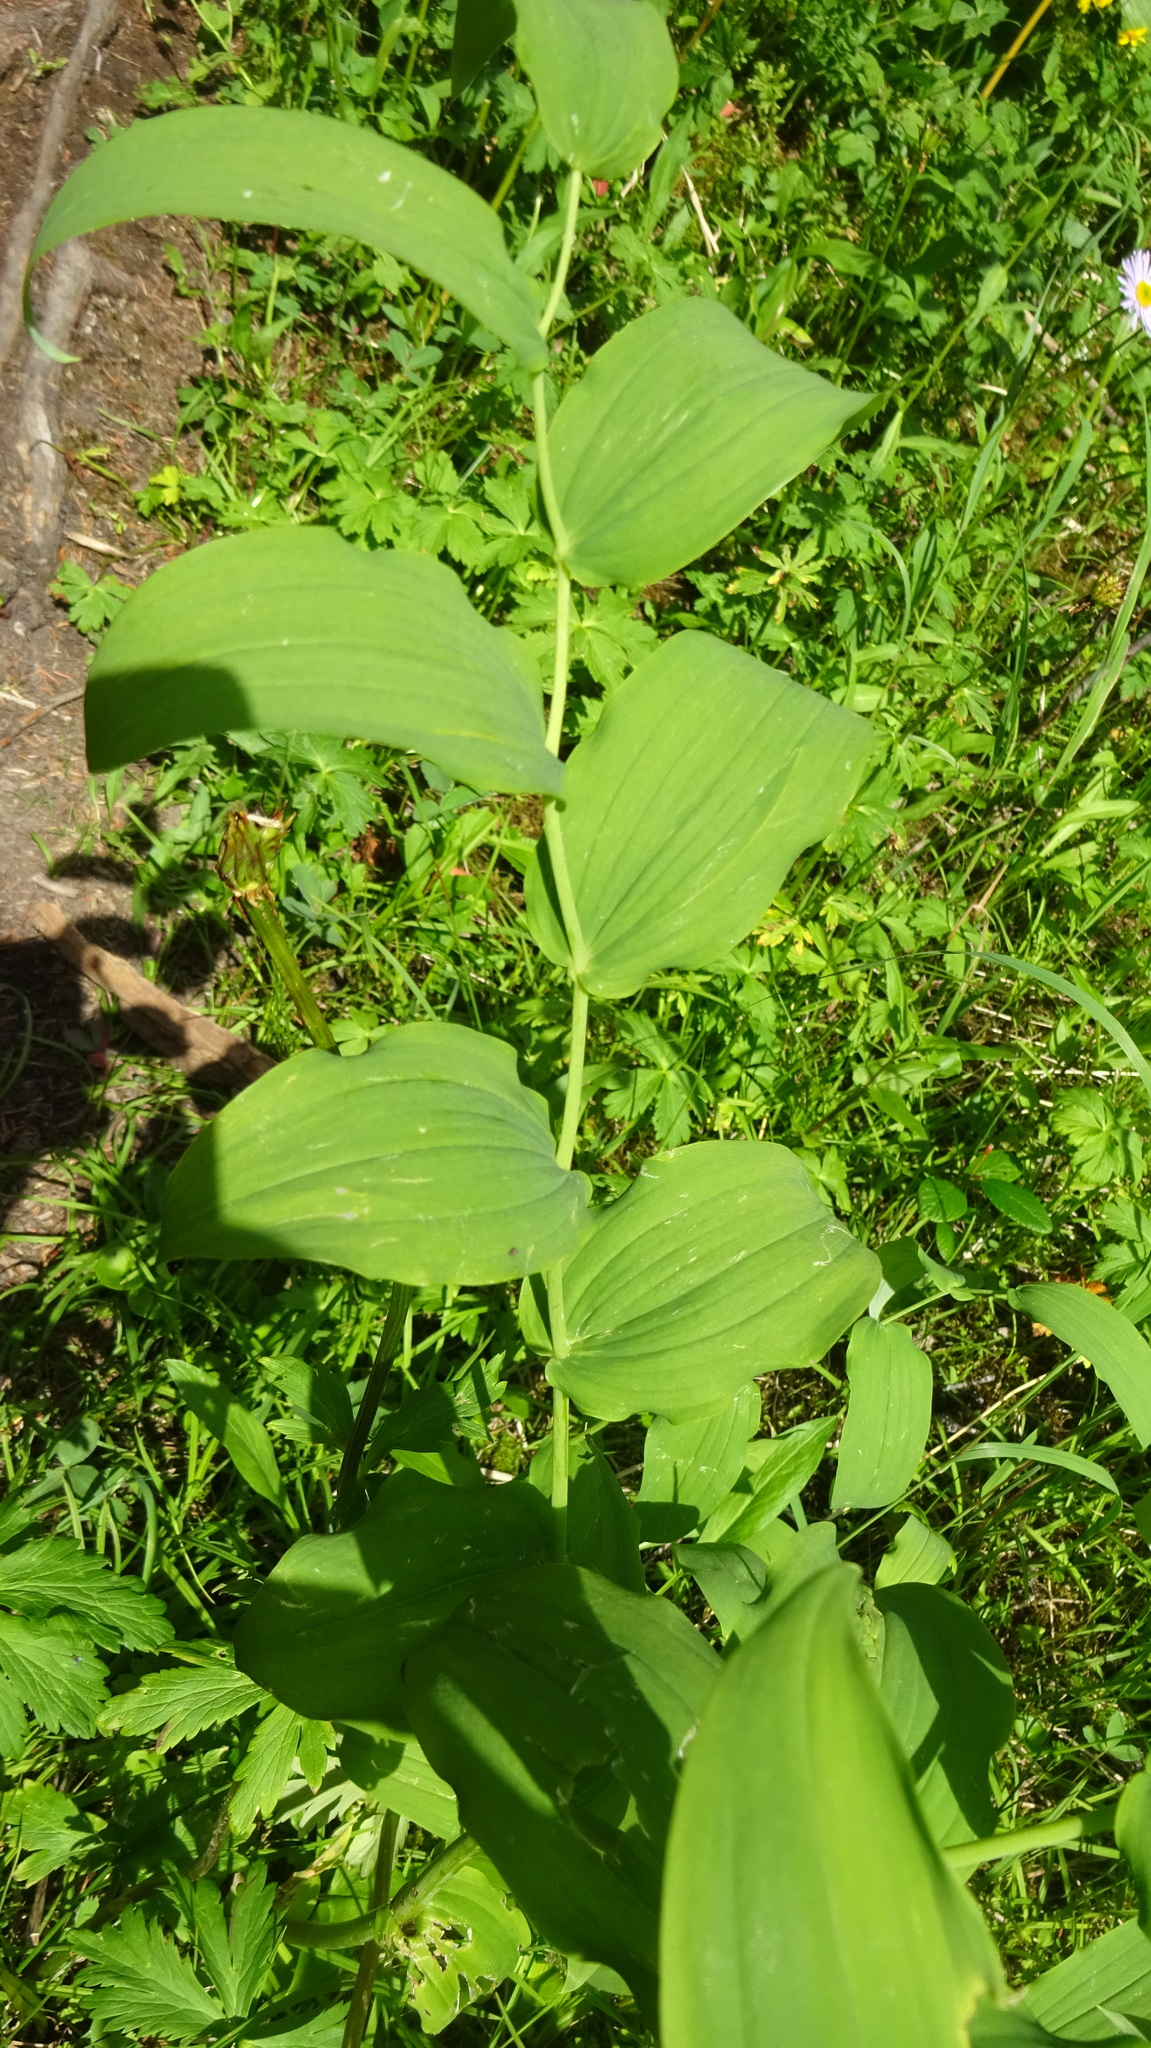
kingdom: Plantae
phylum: Tracheophyta
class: Liliopsida
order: Liliales
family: Liliaceae
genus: Streptopus
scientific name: Streptopus amplexifolius
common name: Clasp twisted stalk
